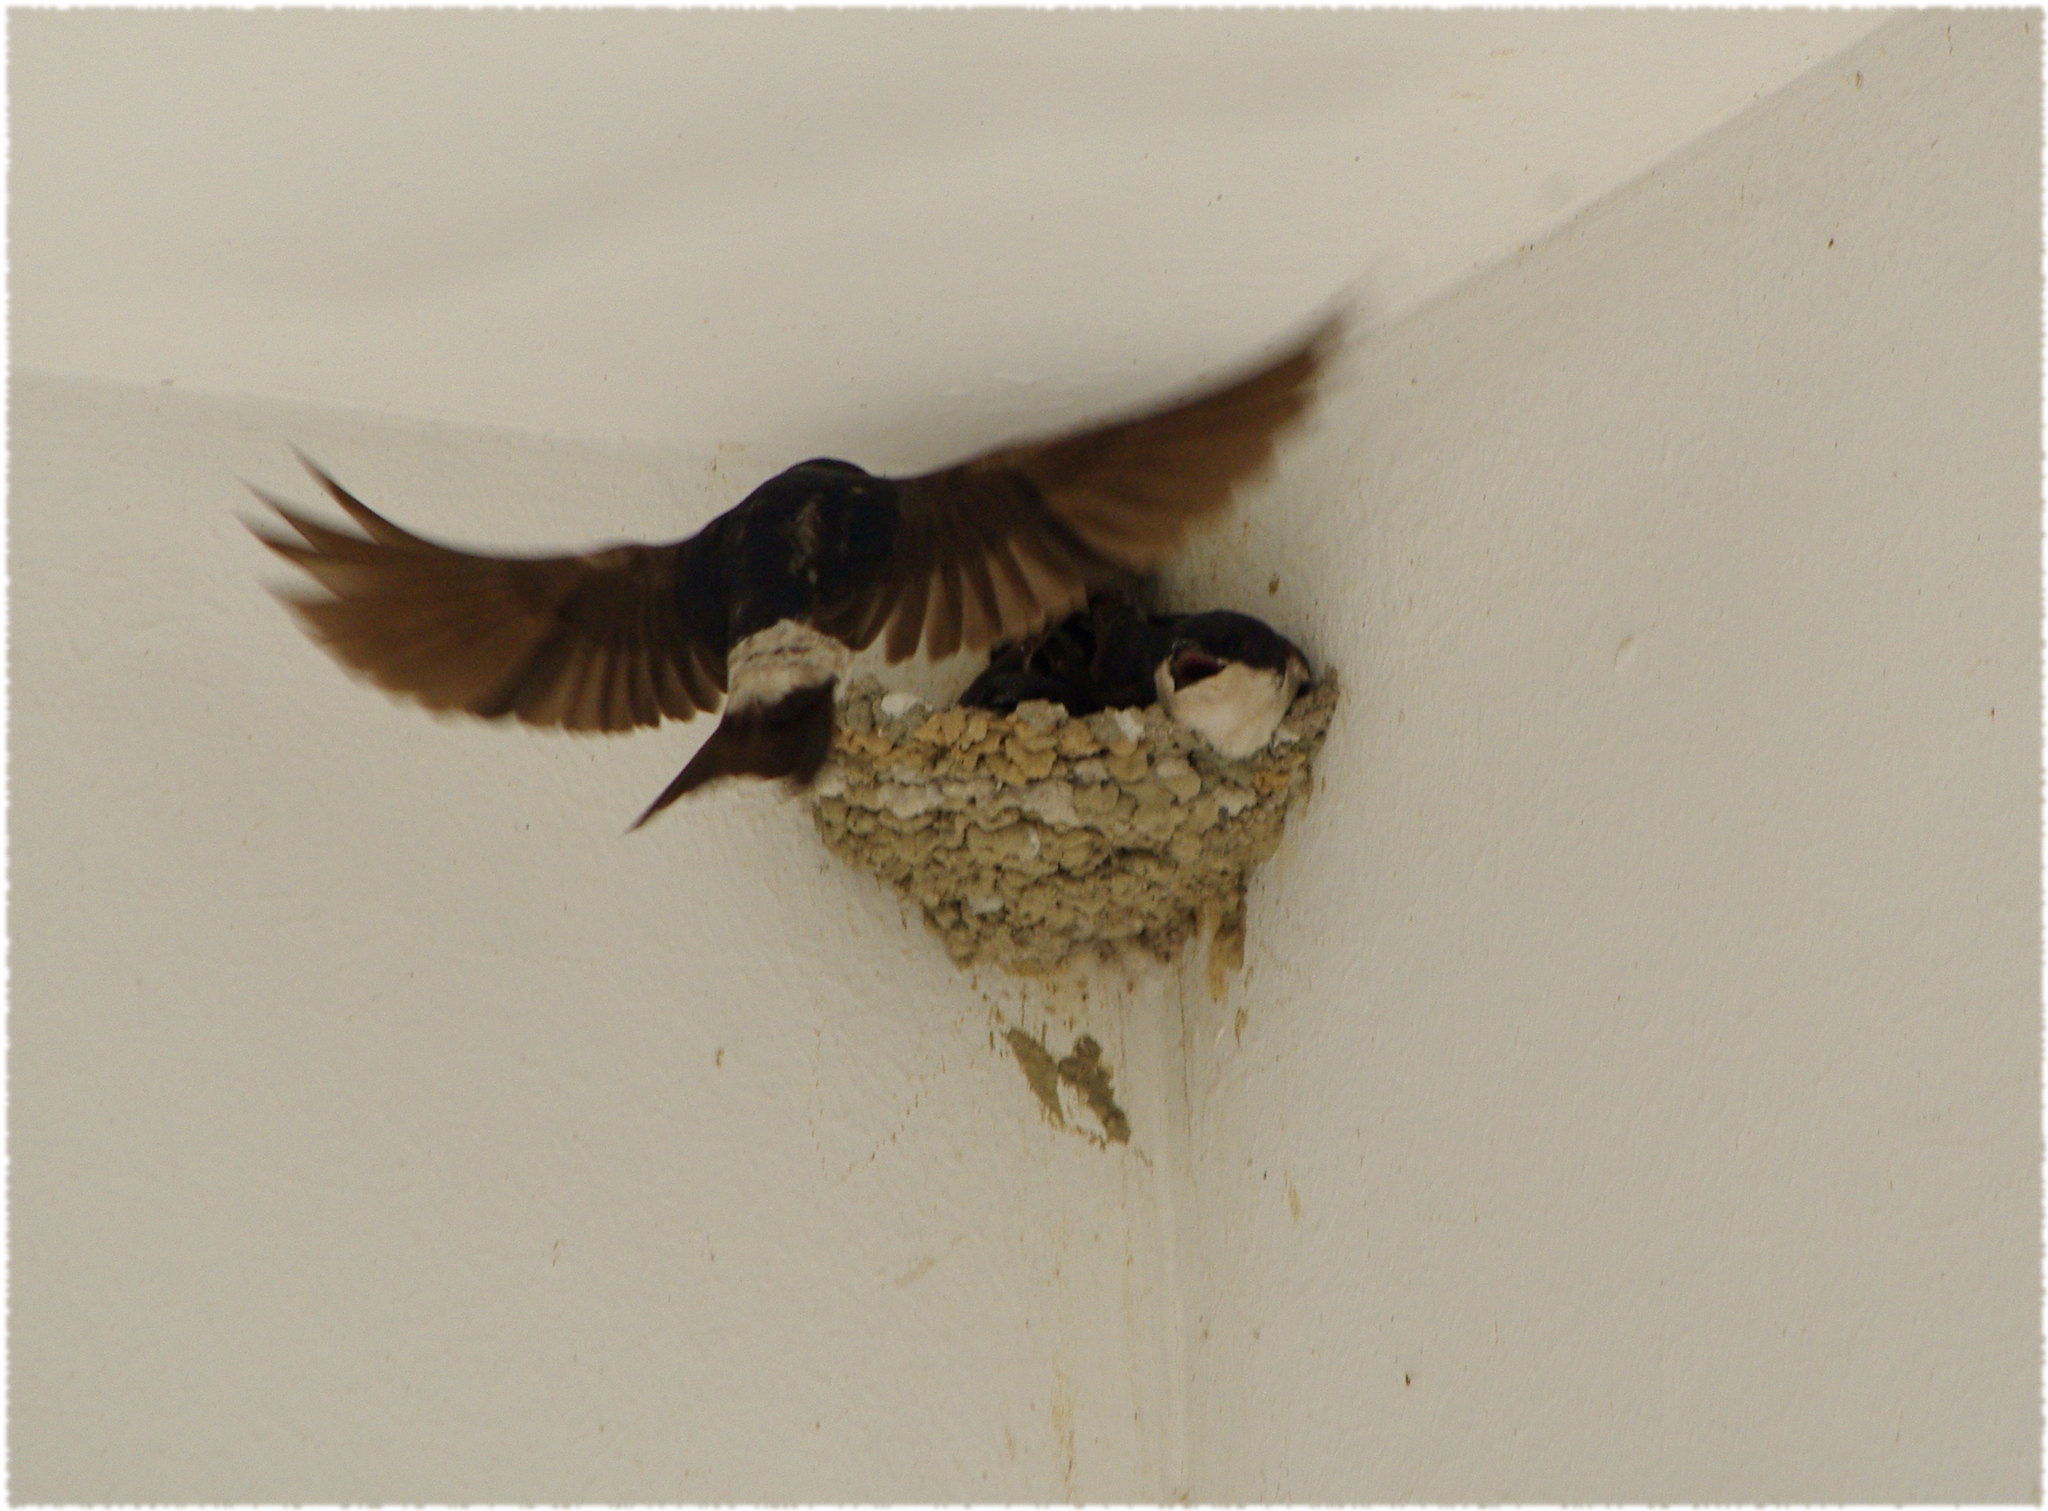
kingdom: Animalia
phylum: Chordata
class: Aves
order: Passeriformes
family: Hirundinidae
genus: Delichon
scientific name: Delichon urbicum
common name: Common house martin
